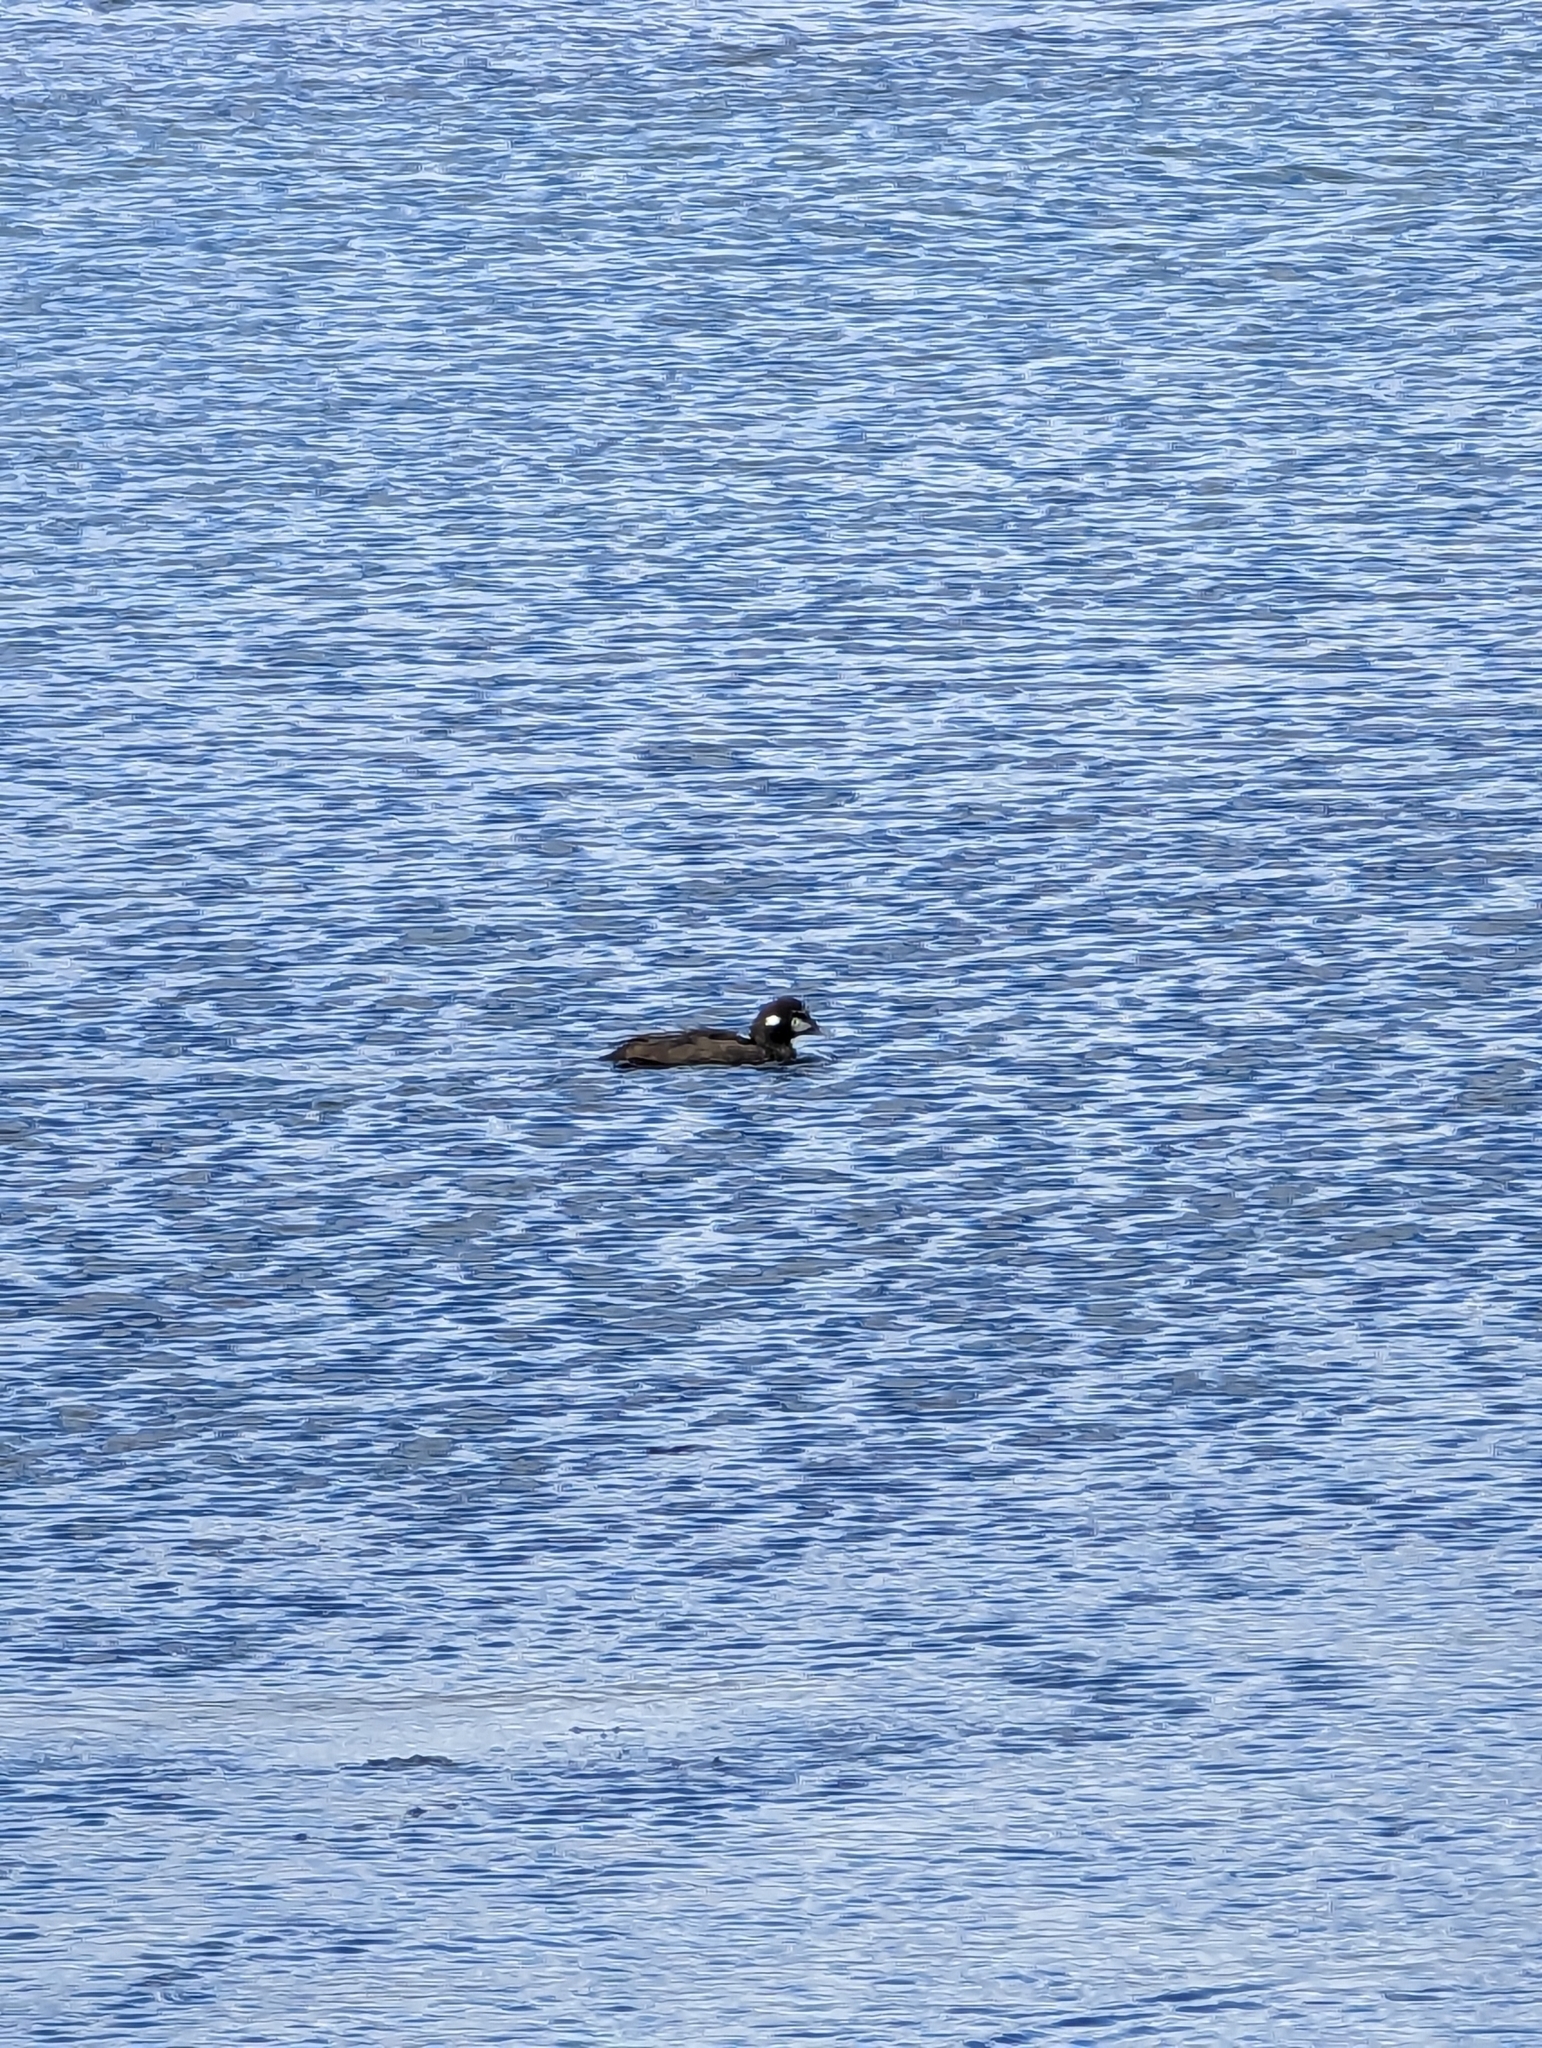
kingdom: Animalia
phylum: Chordata
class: Aves
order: Anseriformes
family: Anatidae
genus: Histrionicus
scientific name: Histrionicus histrionicus
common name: Harlequin duck
